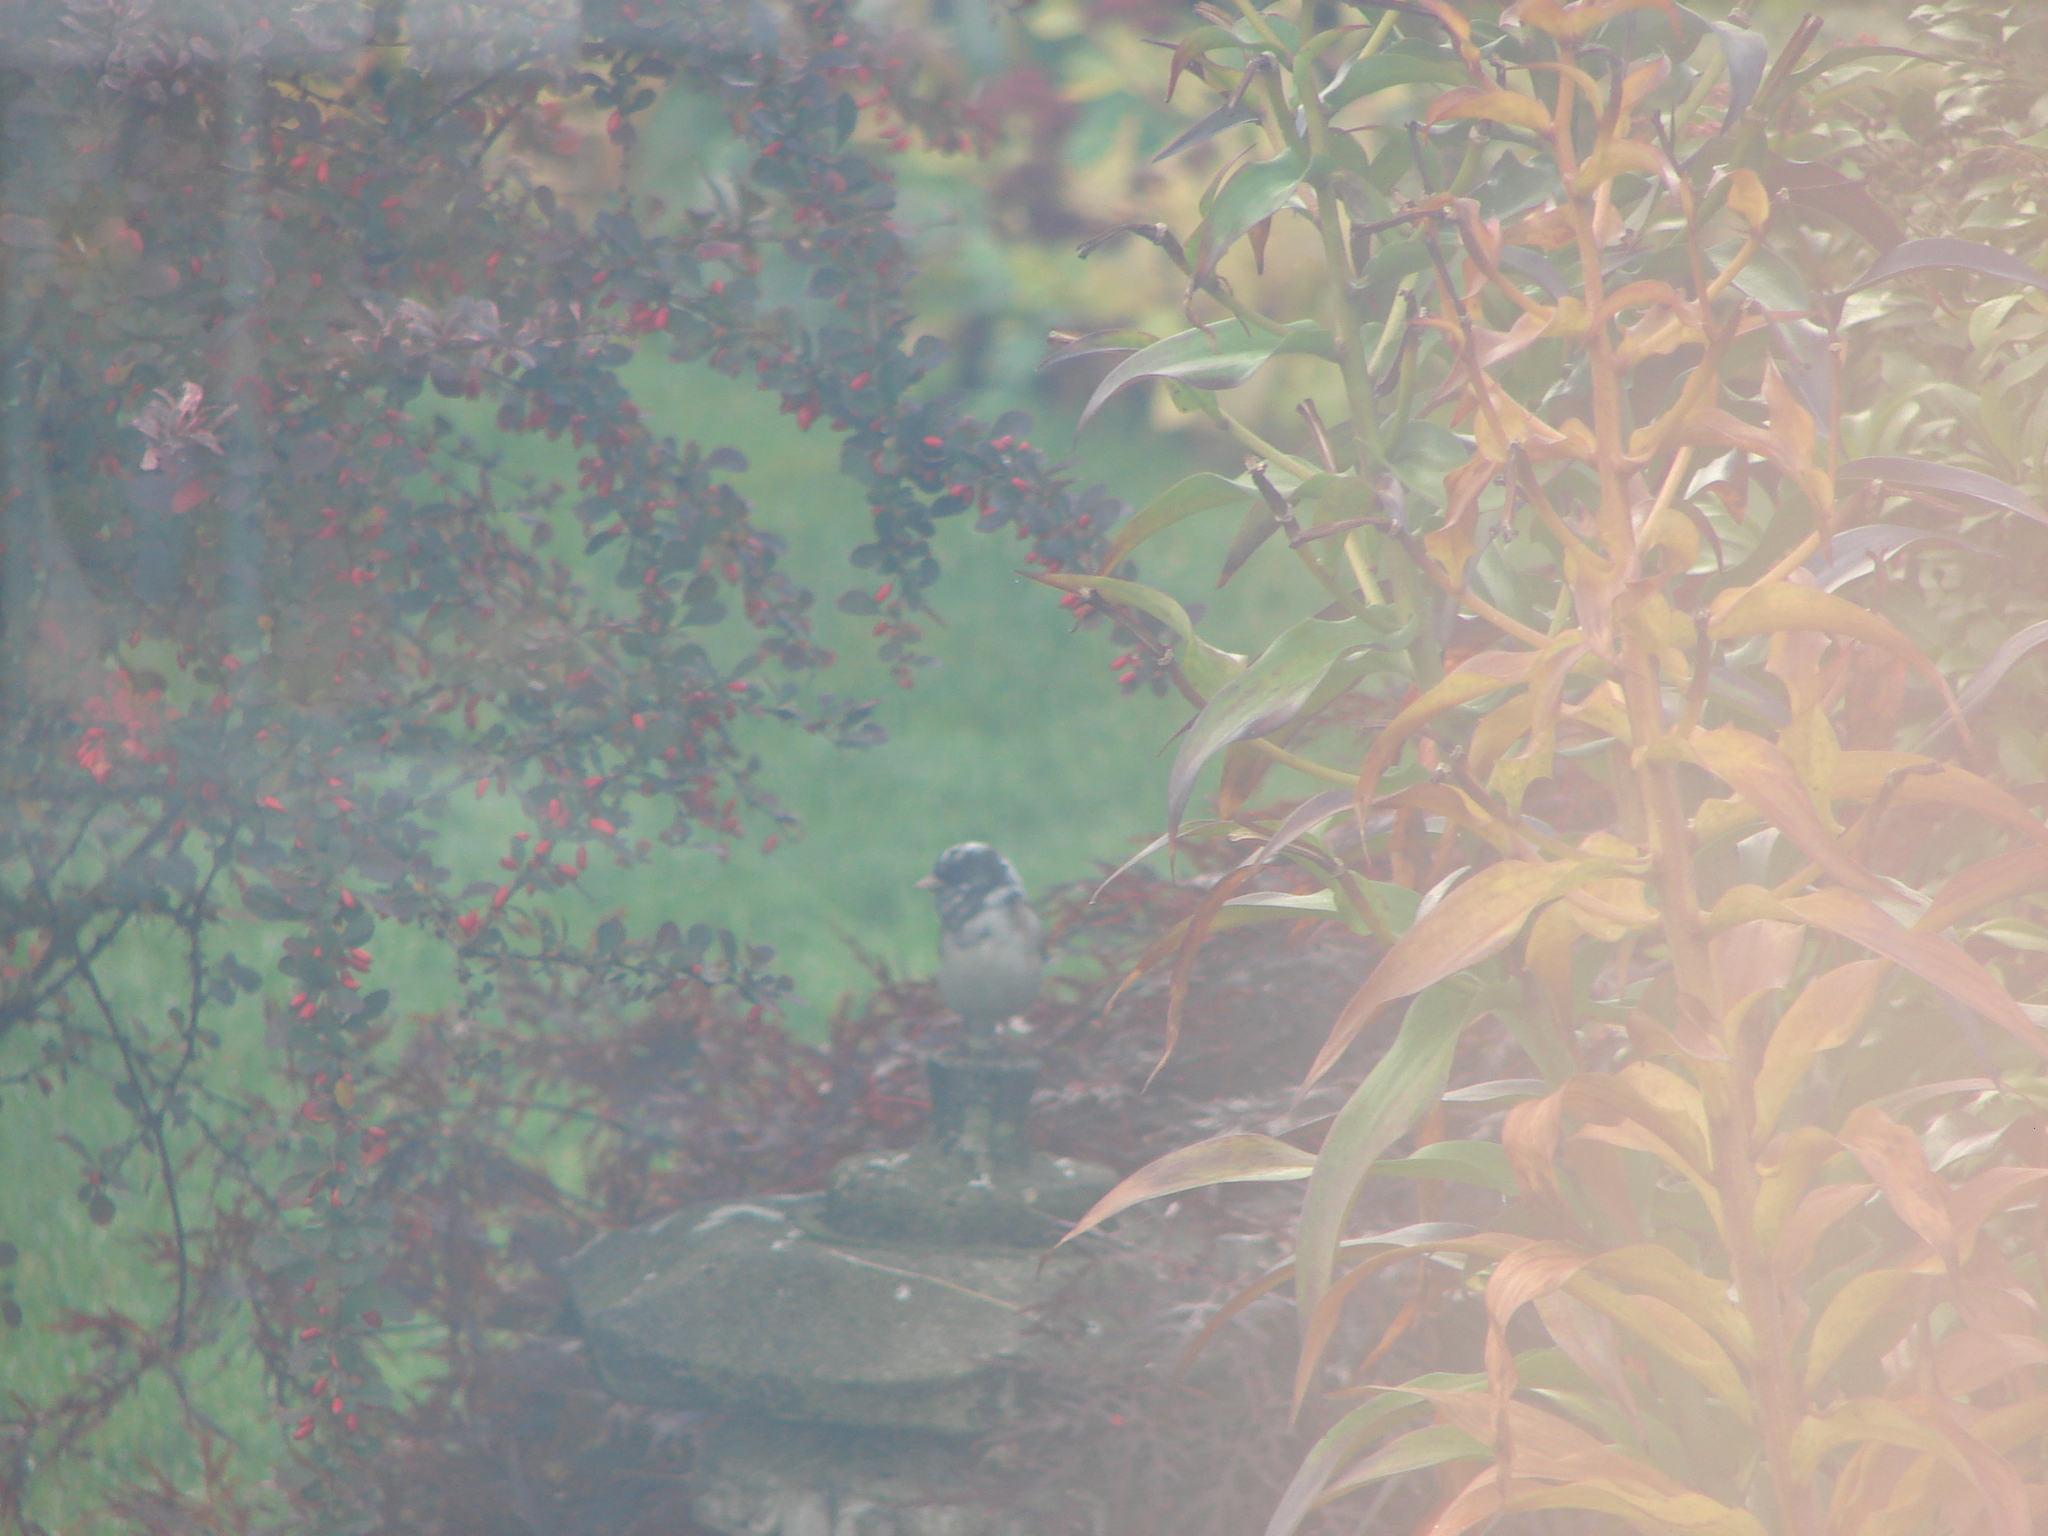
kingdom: Animalia
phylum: Chordata
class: Aves
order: Passeriformes
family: Passerellidae
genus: Junco
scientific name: Junco hyemalis
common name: Dark-eyed junco
